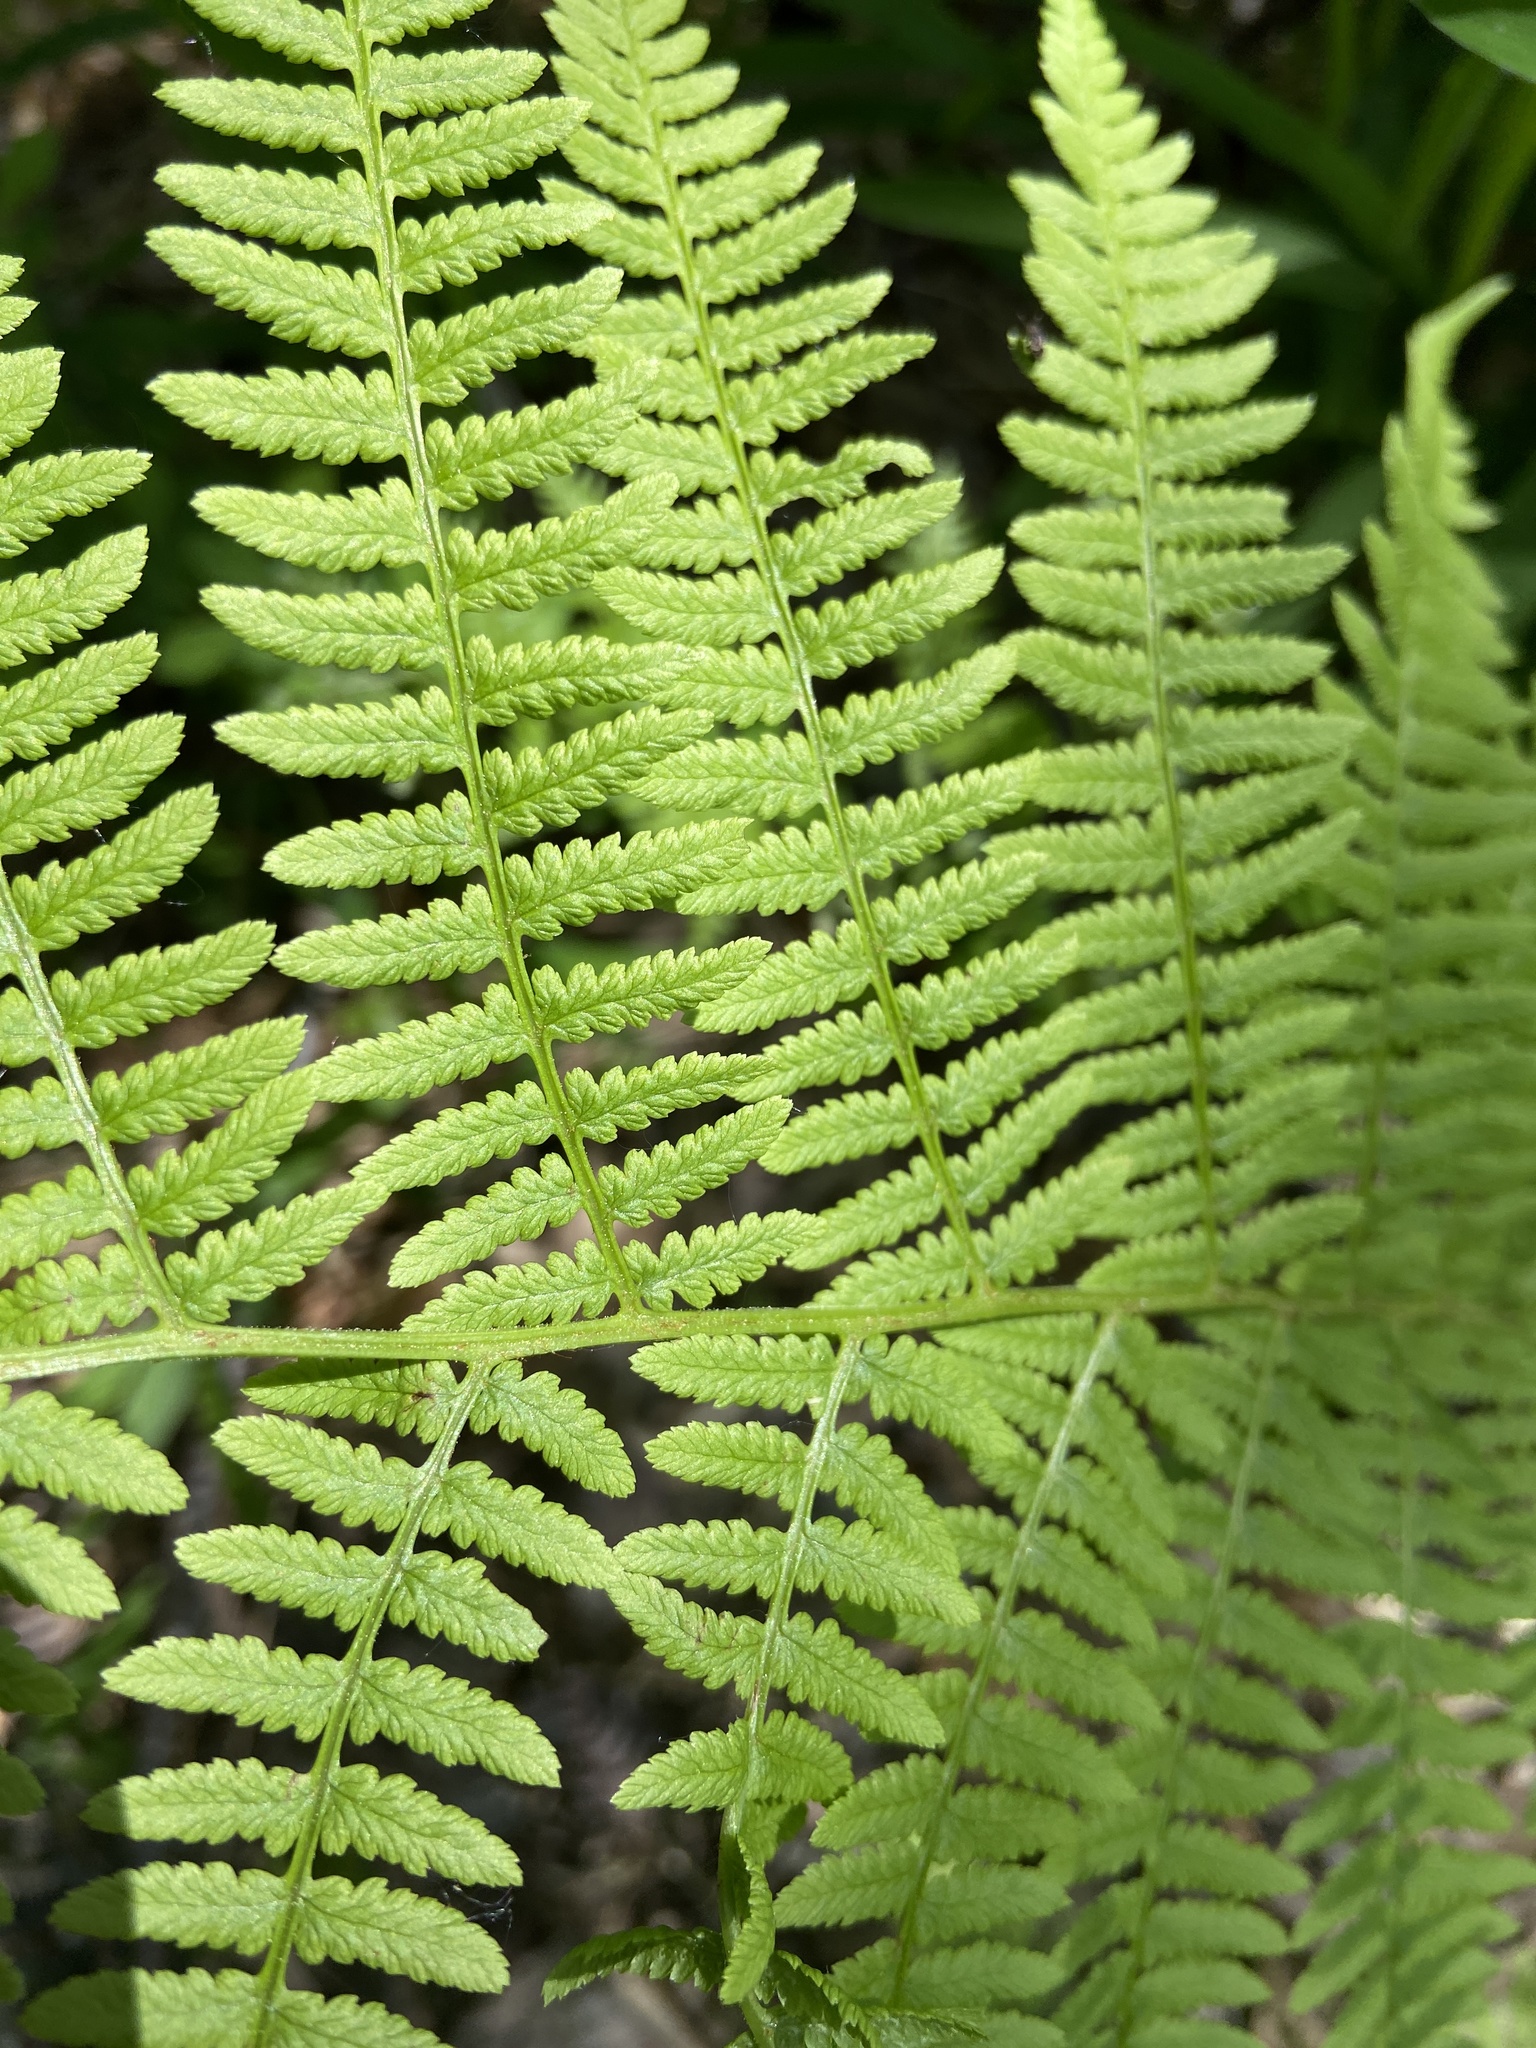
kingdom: Plantae
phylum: Tracheophyta
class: Polypodiopsida
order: Polypodiales
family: Athyriaceae
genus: Athyrium
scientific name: Athyrium angustum
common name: Northern lady fern
